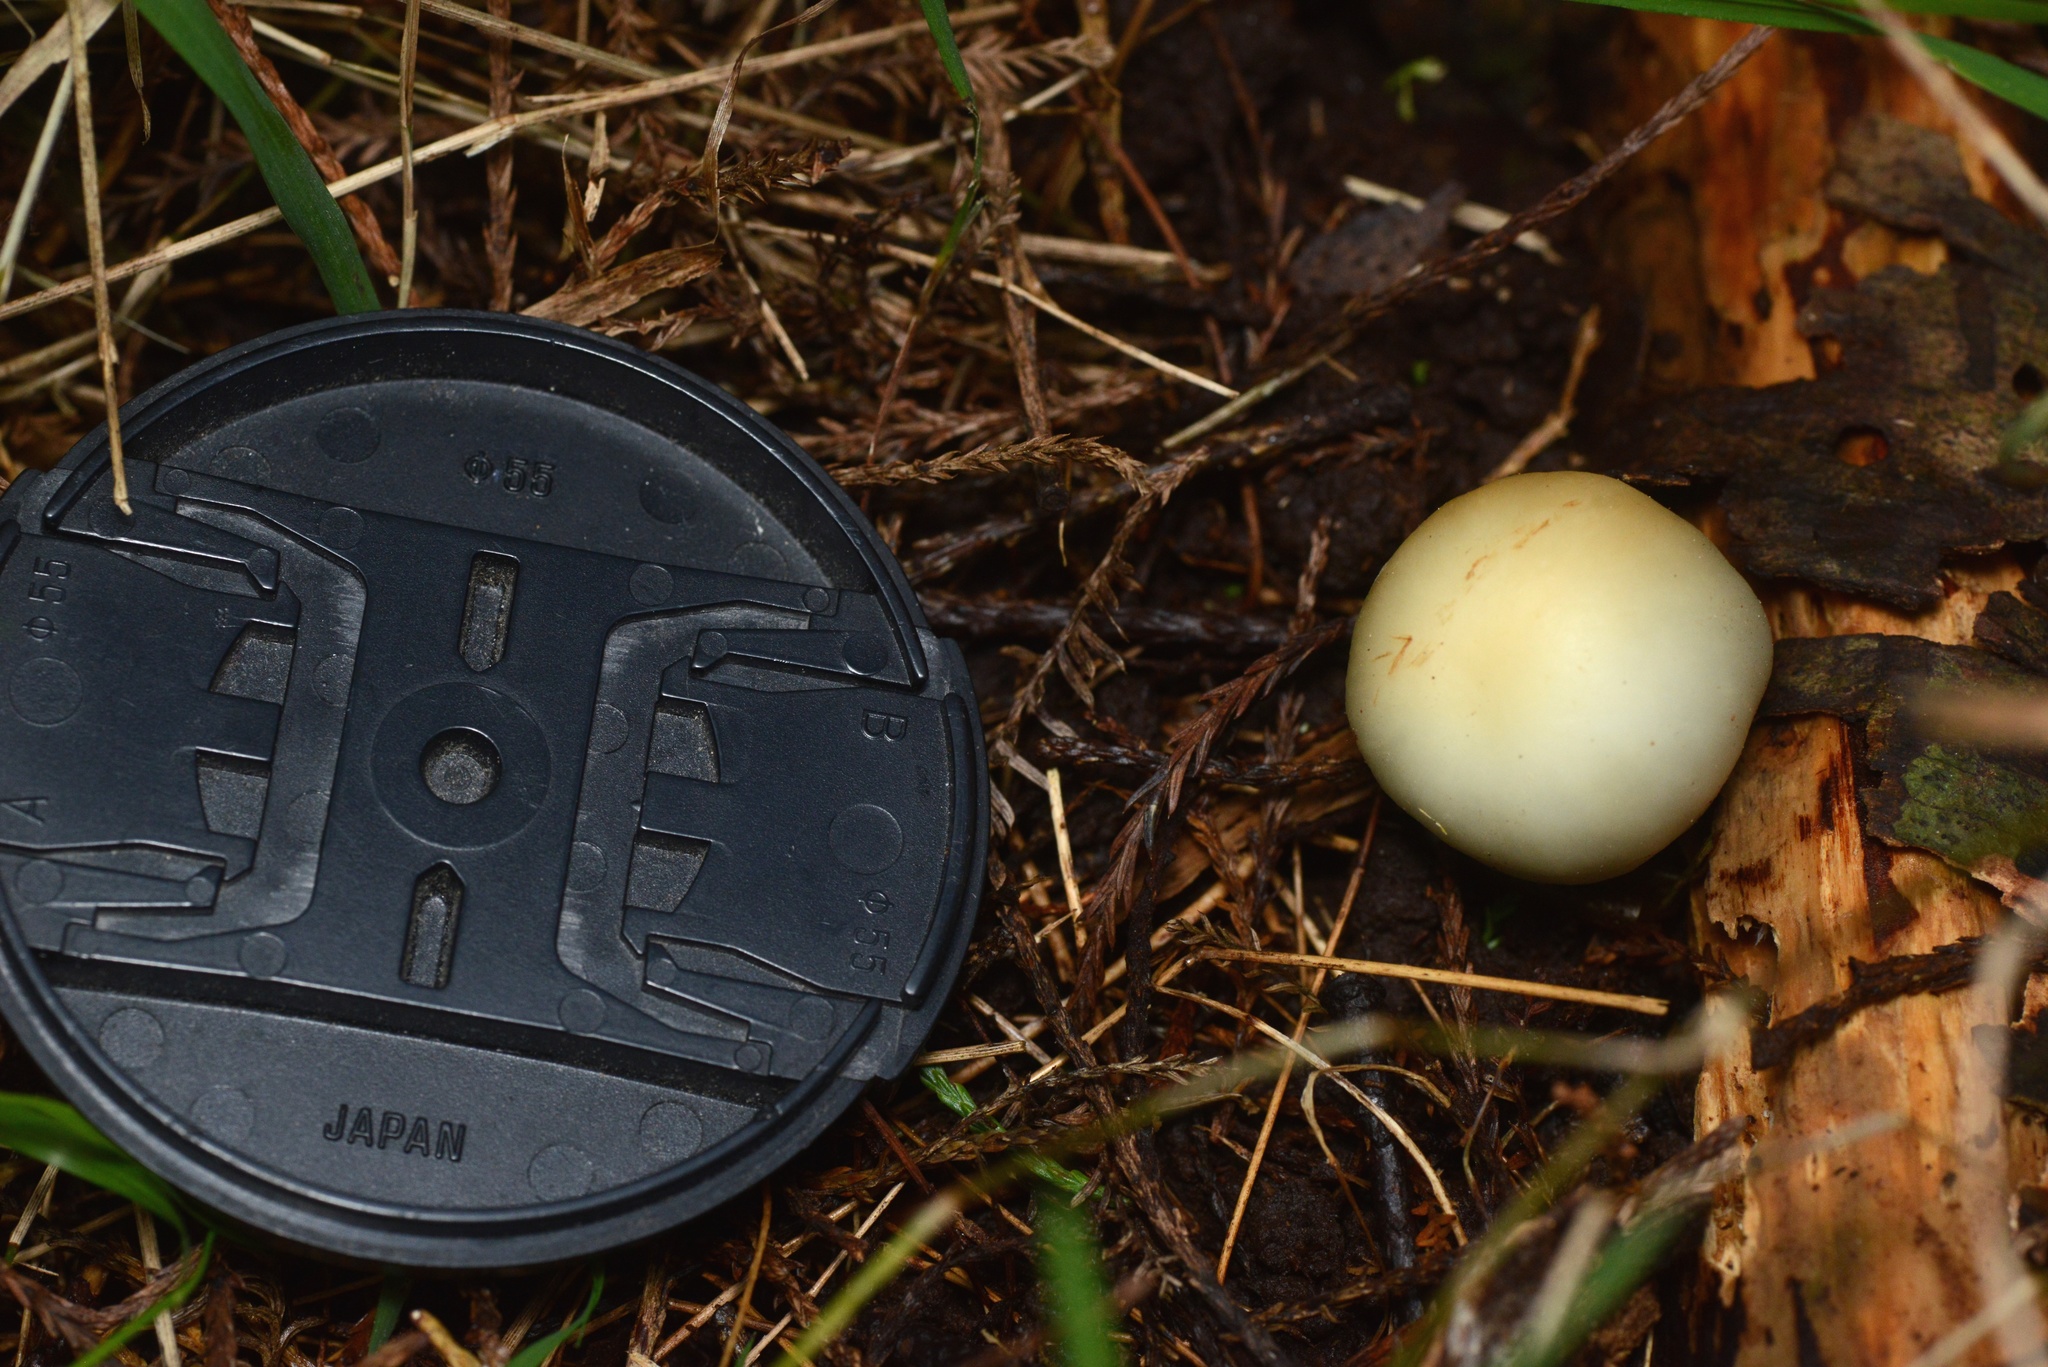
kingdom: Fungi
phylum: Basidiomycota
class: Agaricomycetes
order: Agaricales
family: Hymenogastraceae
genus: Psilocybe
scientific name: Psilocybe weraroa
